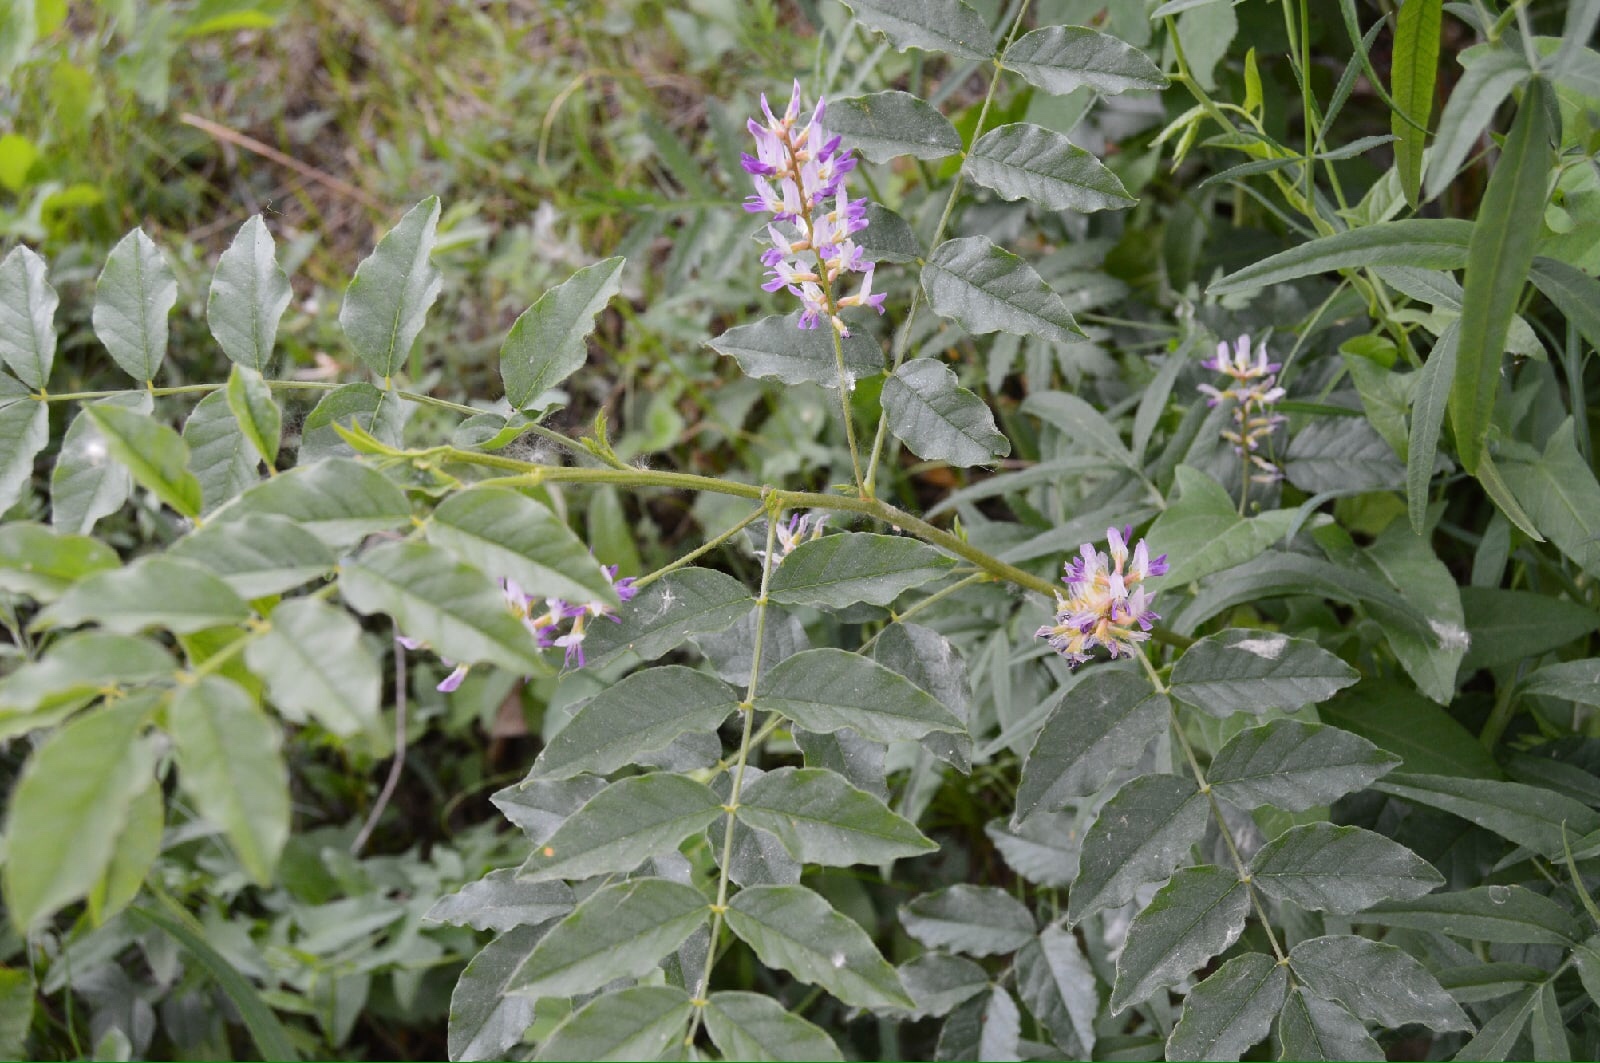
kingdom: Plantae
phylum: Tracheophyta
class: Magnoliopsida
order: Fabales
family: Fabaceae
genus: Glycyrrhiza
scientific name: Glycyrrhiza glabra
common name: Liquorice
